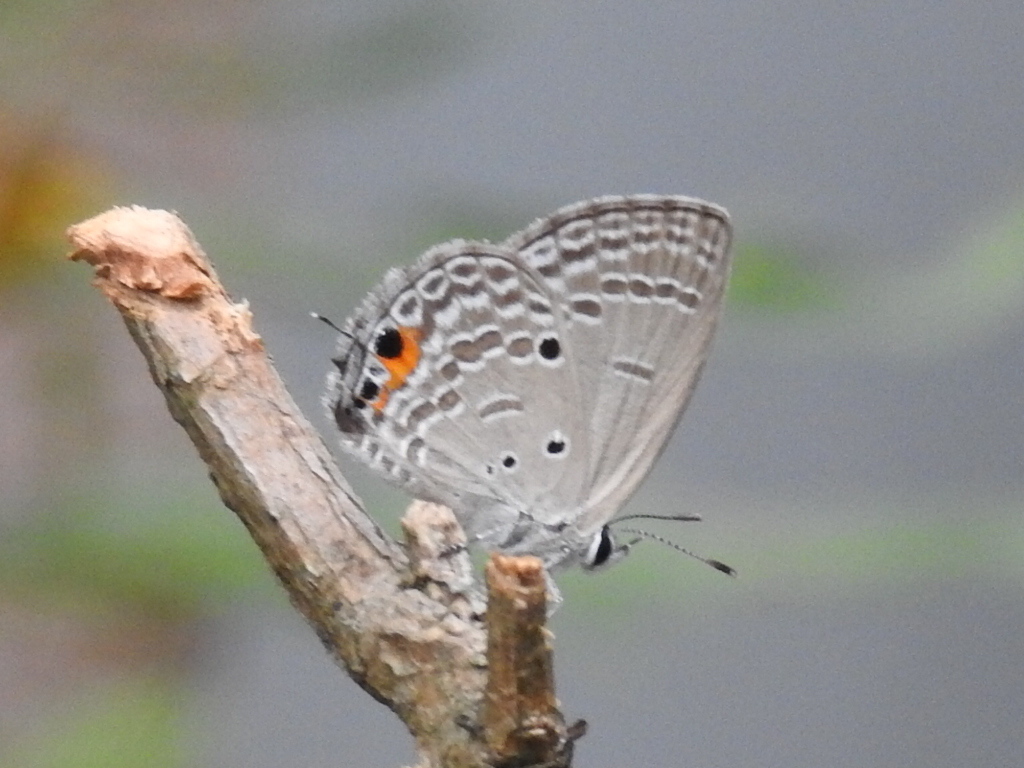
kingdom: Animalia
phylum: Arthropoda
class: Insecta
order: Lepidoptera
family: Lycaenidae
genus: Luthrodes
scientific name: Luthrodes pandava
